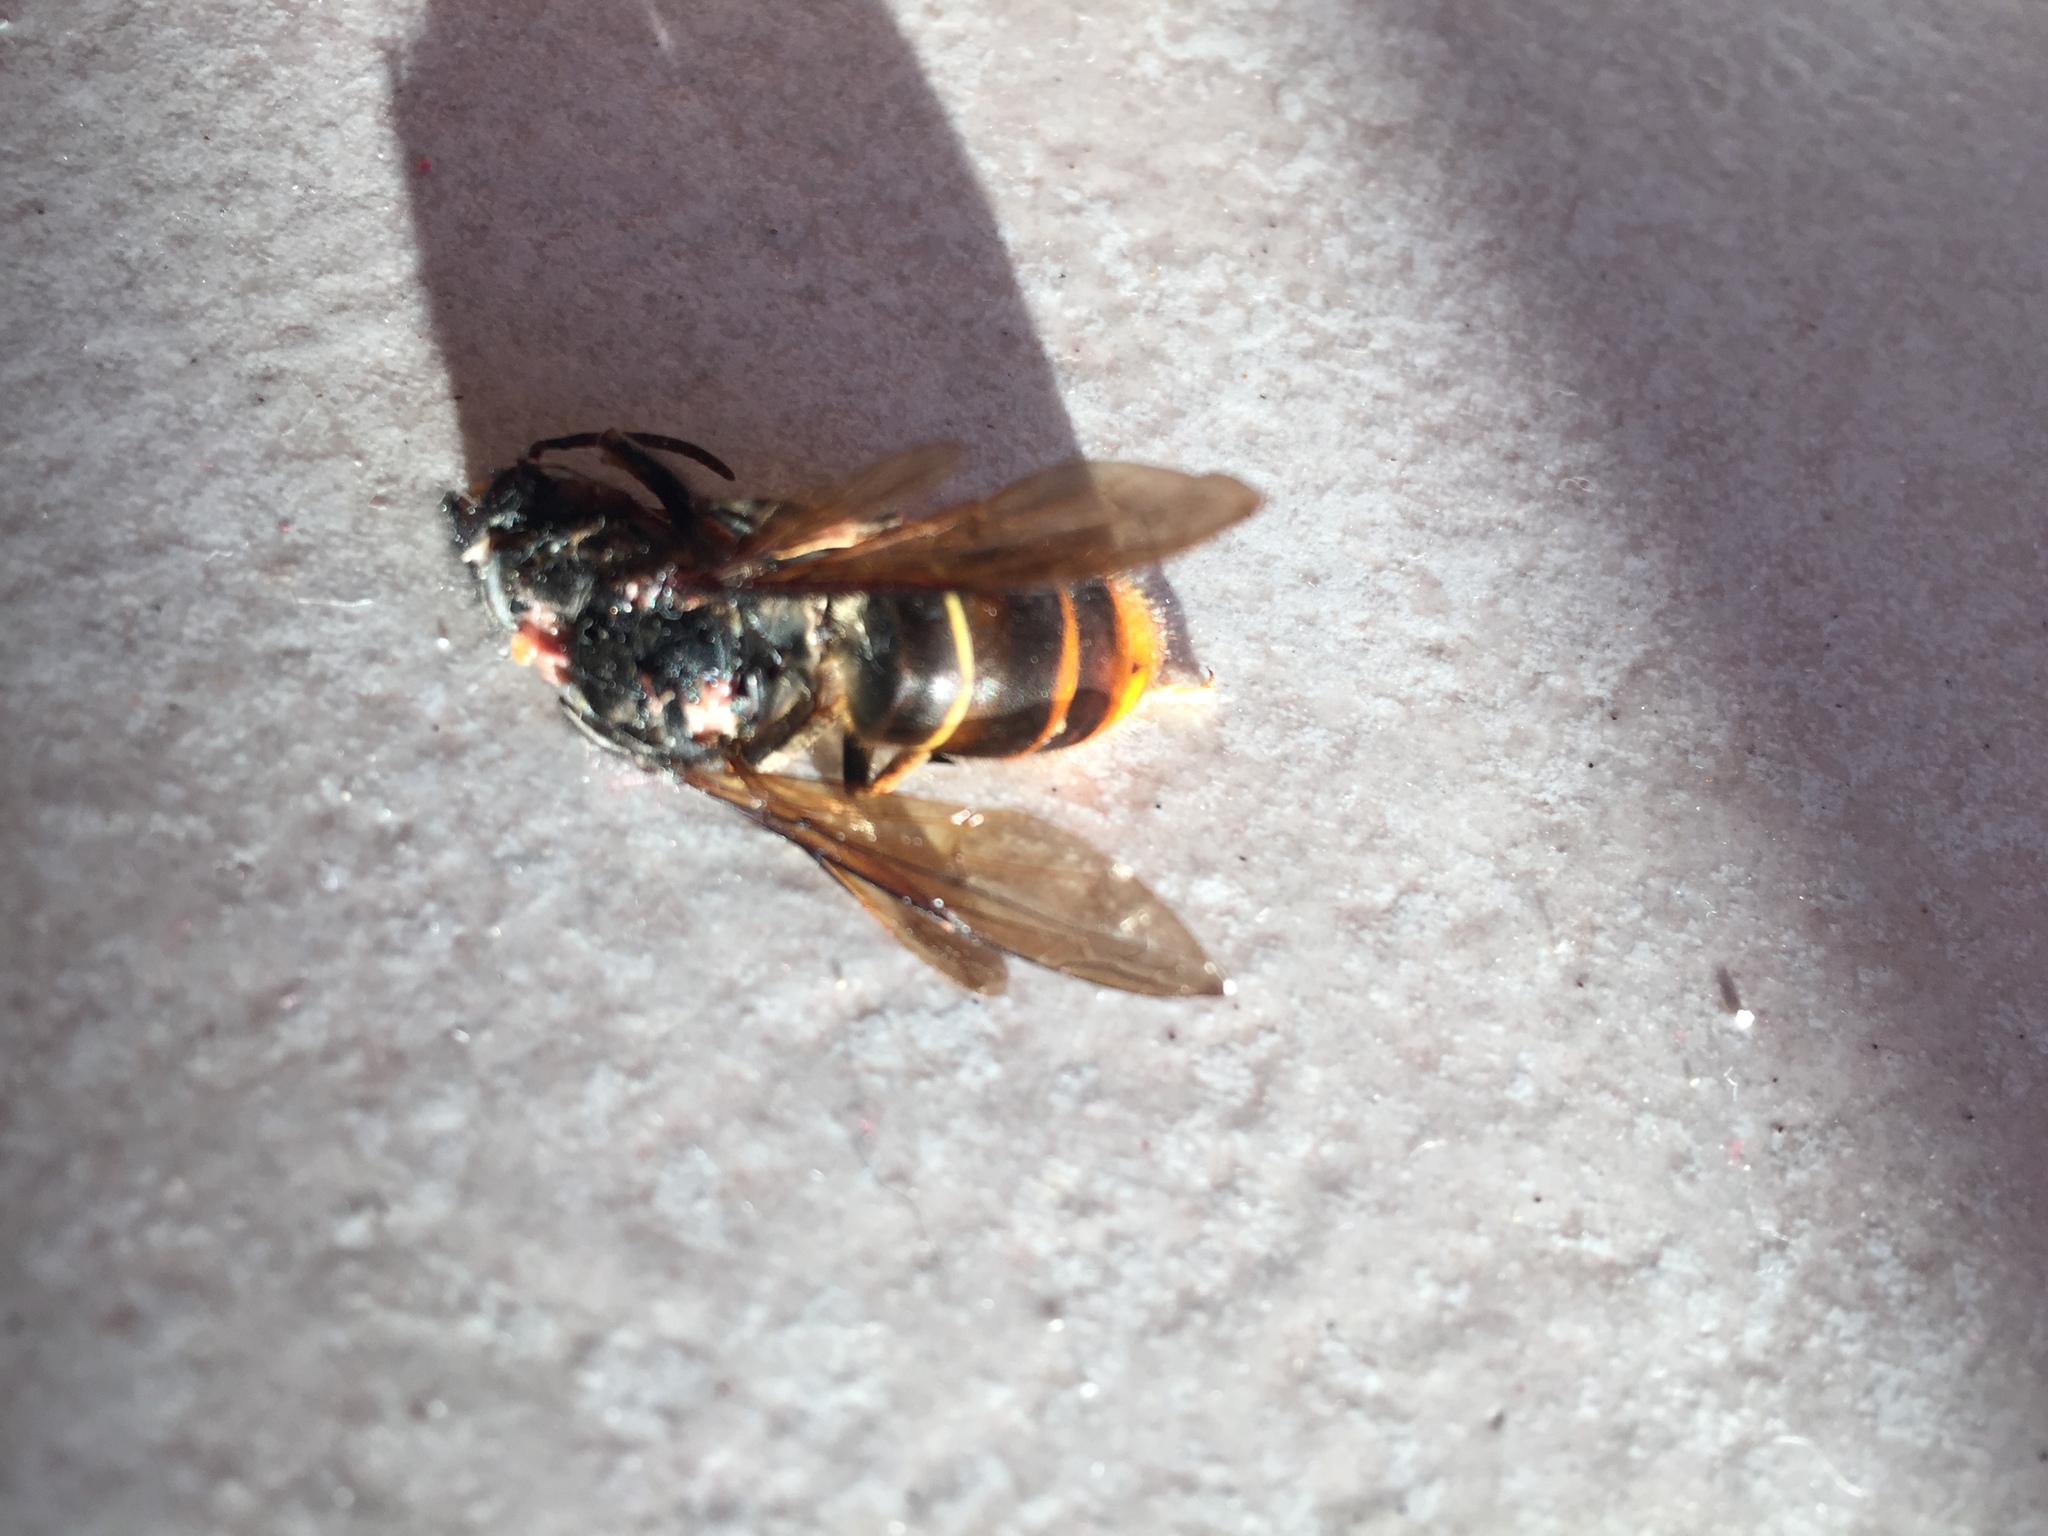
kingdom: Animalia
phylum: Arthropoda
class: Insecta
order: Hymenoptera
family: Vespidae
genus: Vespa
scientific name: Vespa velutina
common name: Asian hornet
